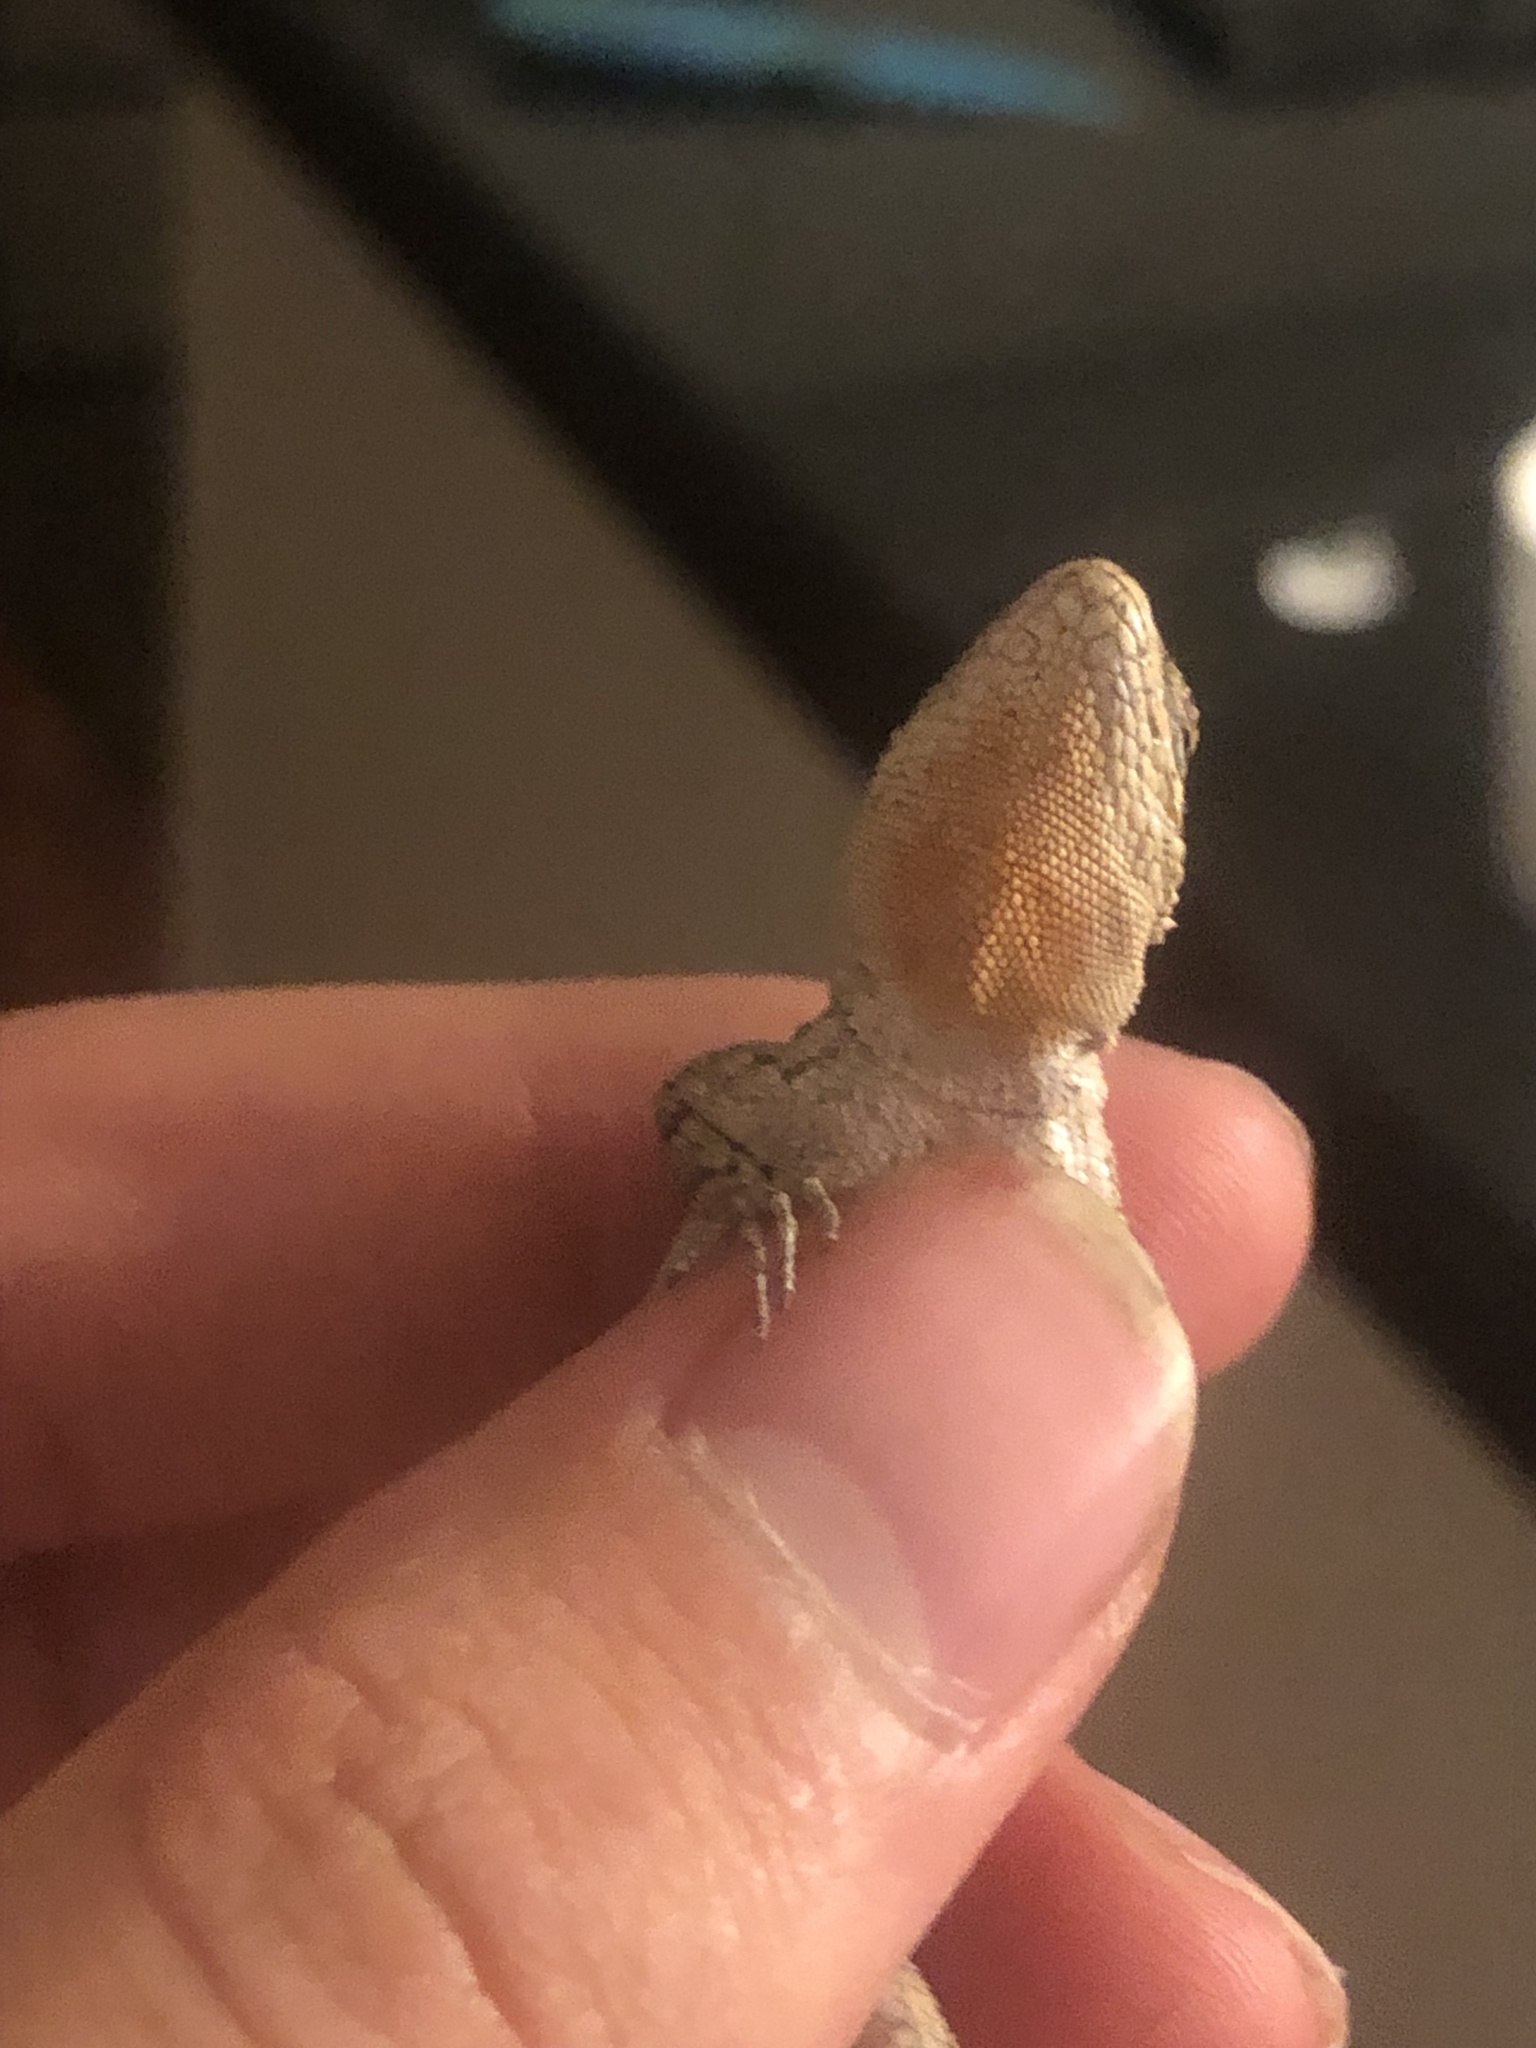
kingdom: Animalia
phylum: Chordata
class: Squamata
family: Phrynosomatidae
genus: Urosaurus
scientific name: Urosaurus ornatus
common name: Ornate tree lizard
